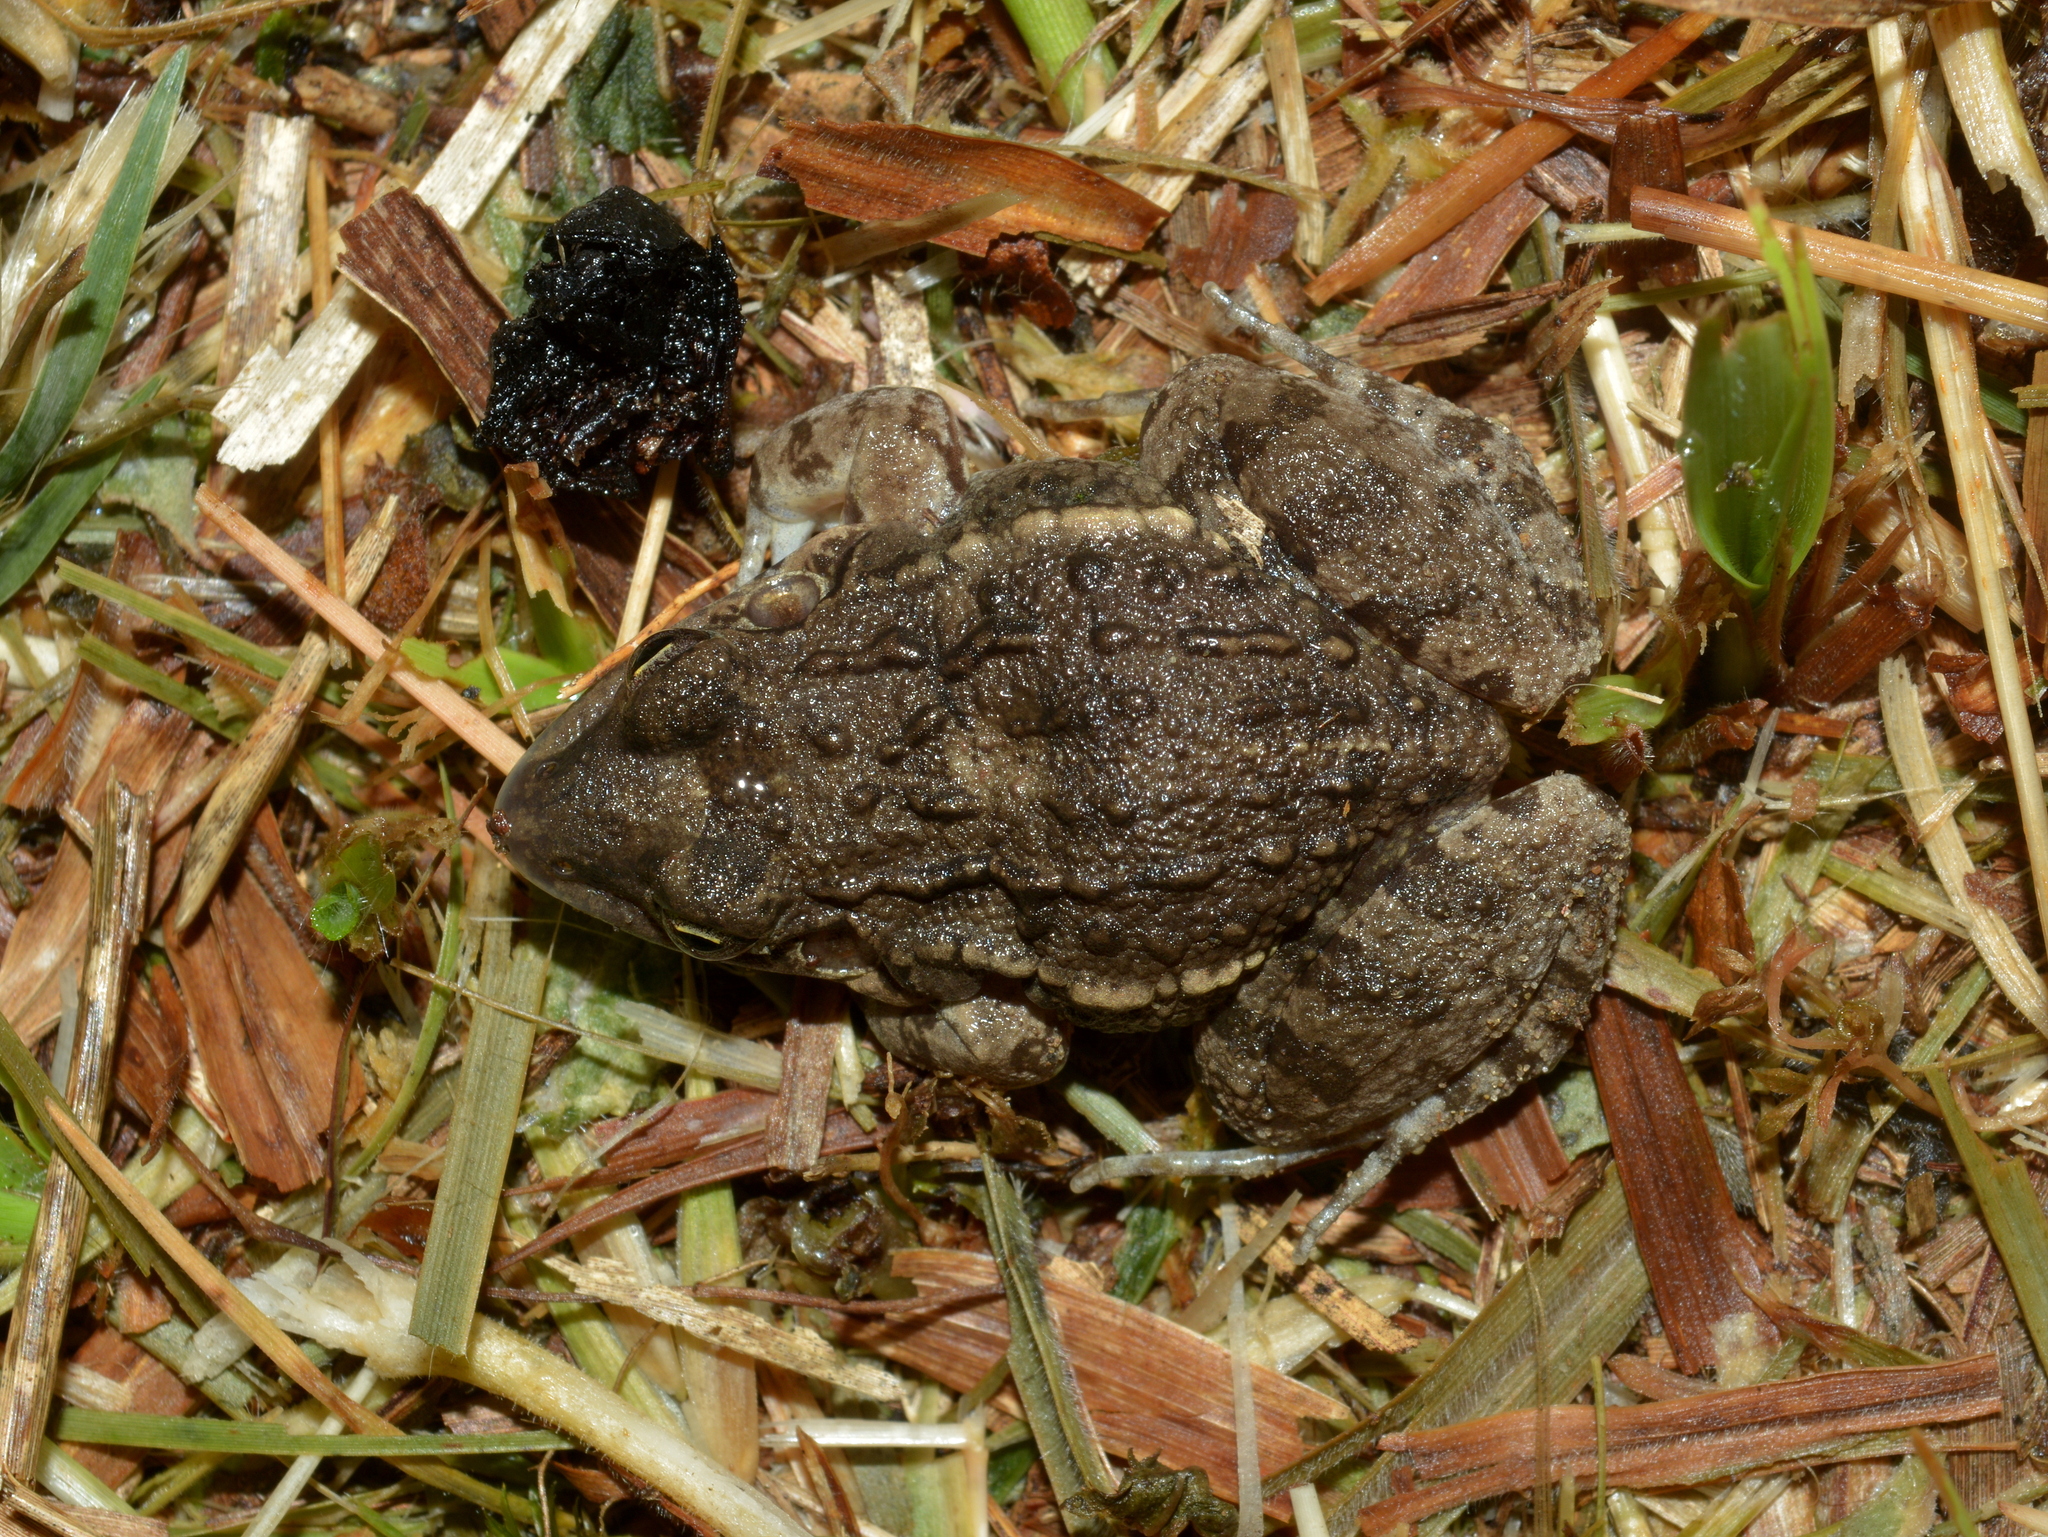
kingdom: Animalia
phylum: Chordata
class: Amphibia
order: Anura
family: Leptodactylidae
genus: Leptodactylus
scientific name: Leptodactylus latinasus
